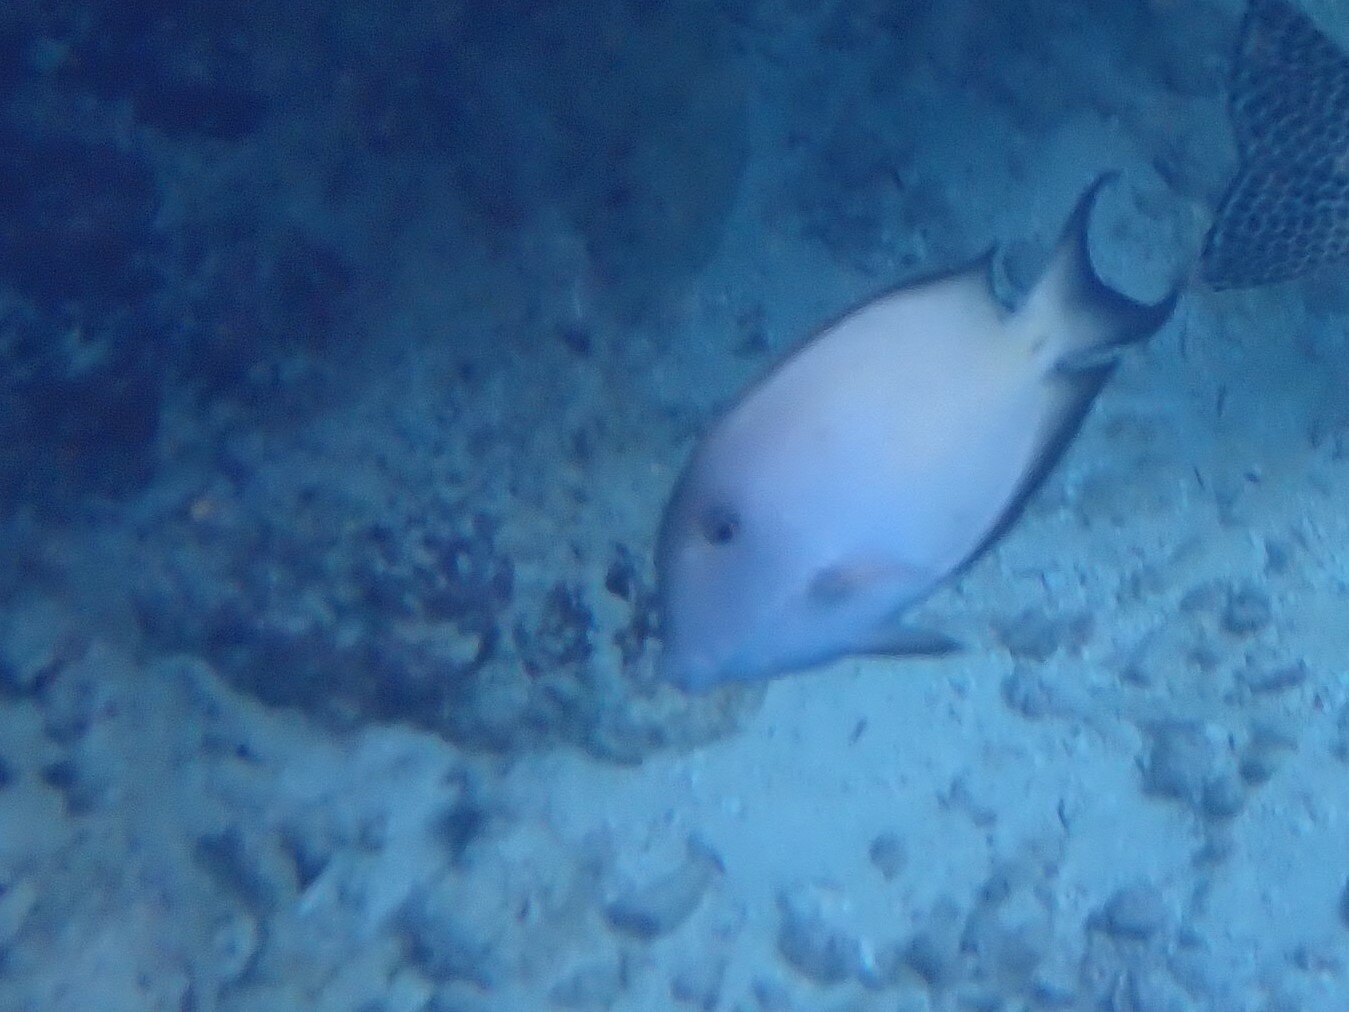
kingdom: Animalia
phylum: Chordata
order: Perciformes
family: Acanthuridae
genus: Ctenochaetus
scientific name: Ctenochaetus striatus
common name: Bristle-toothed surgeonfish
